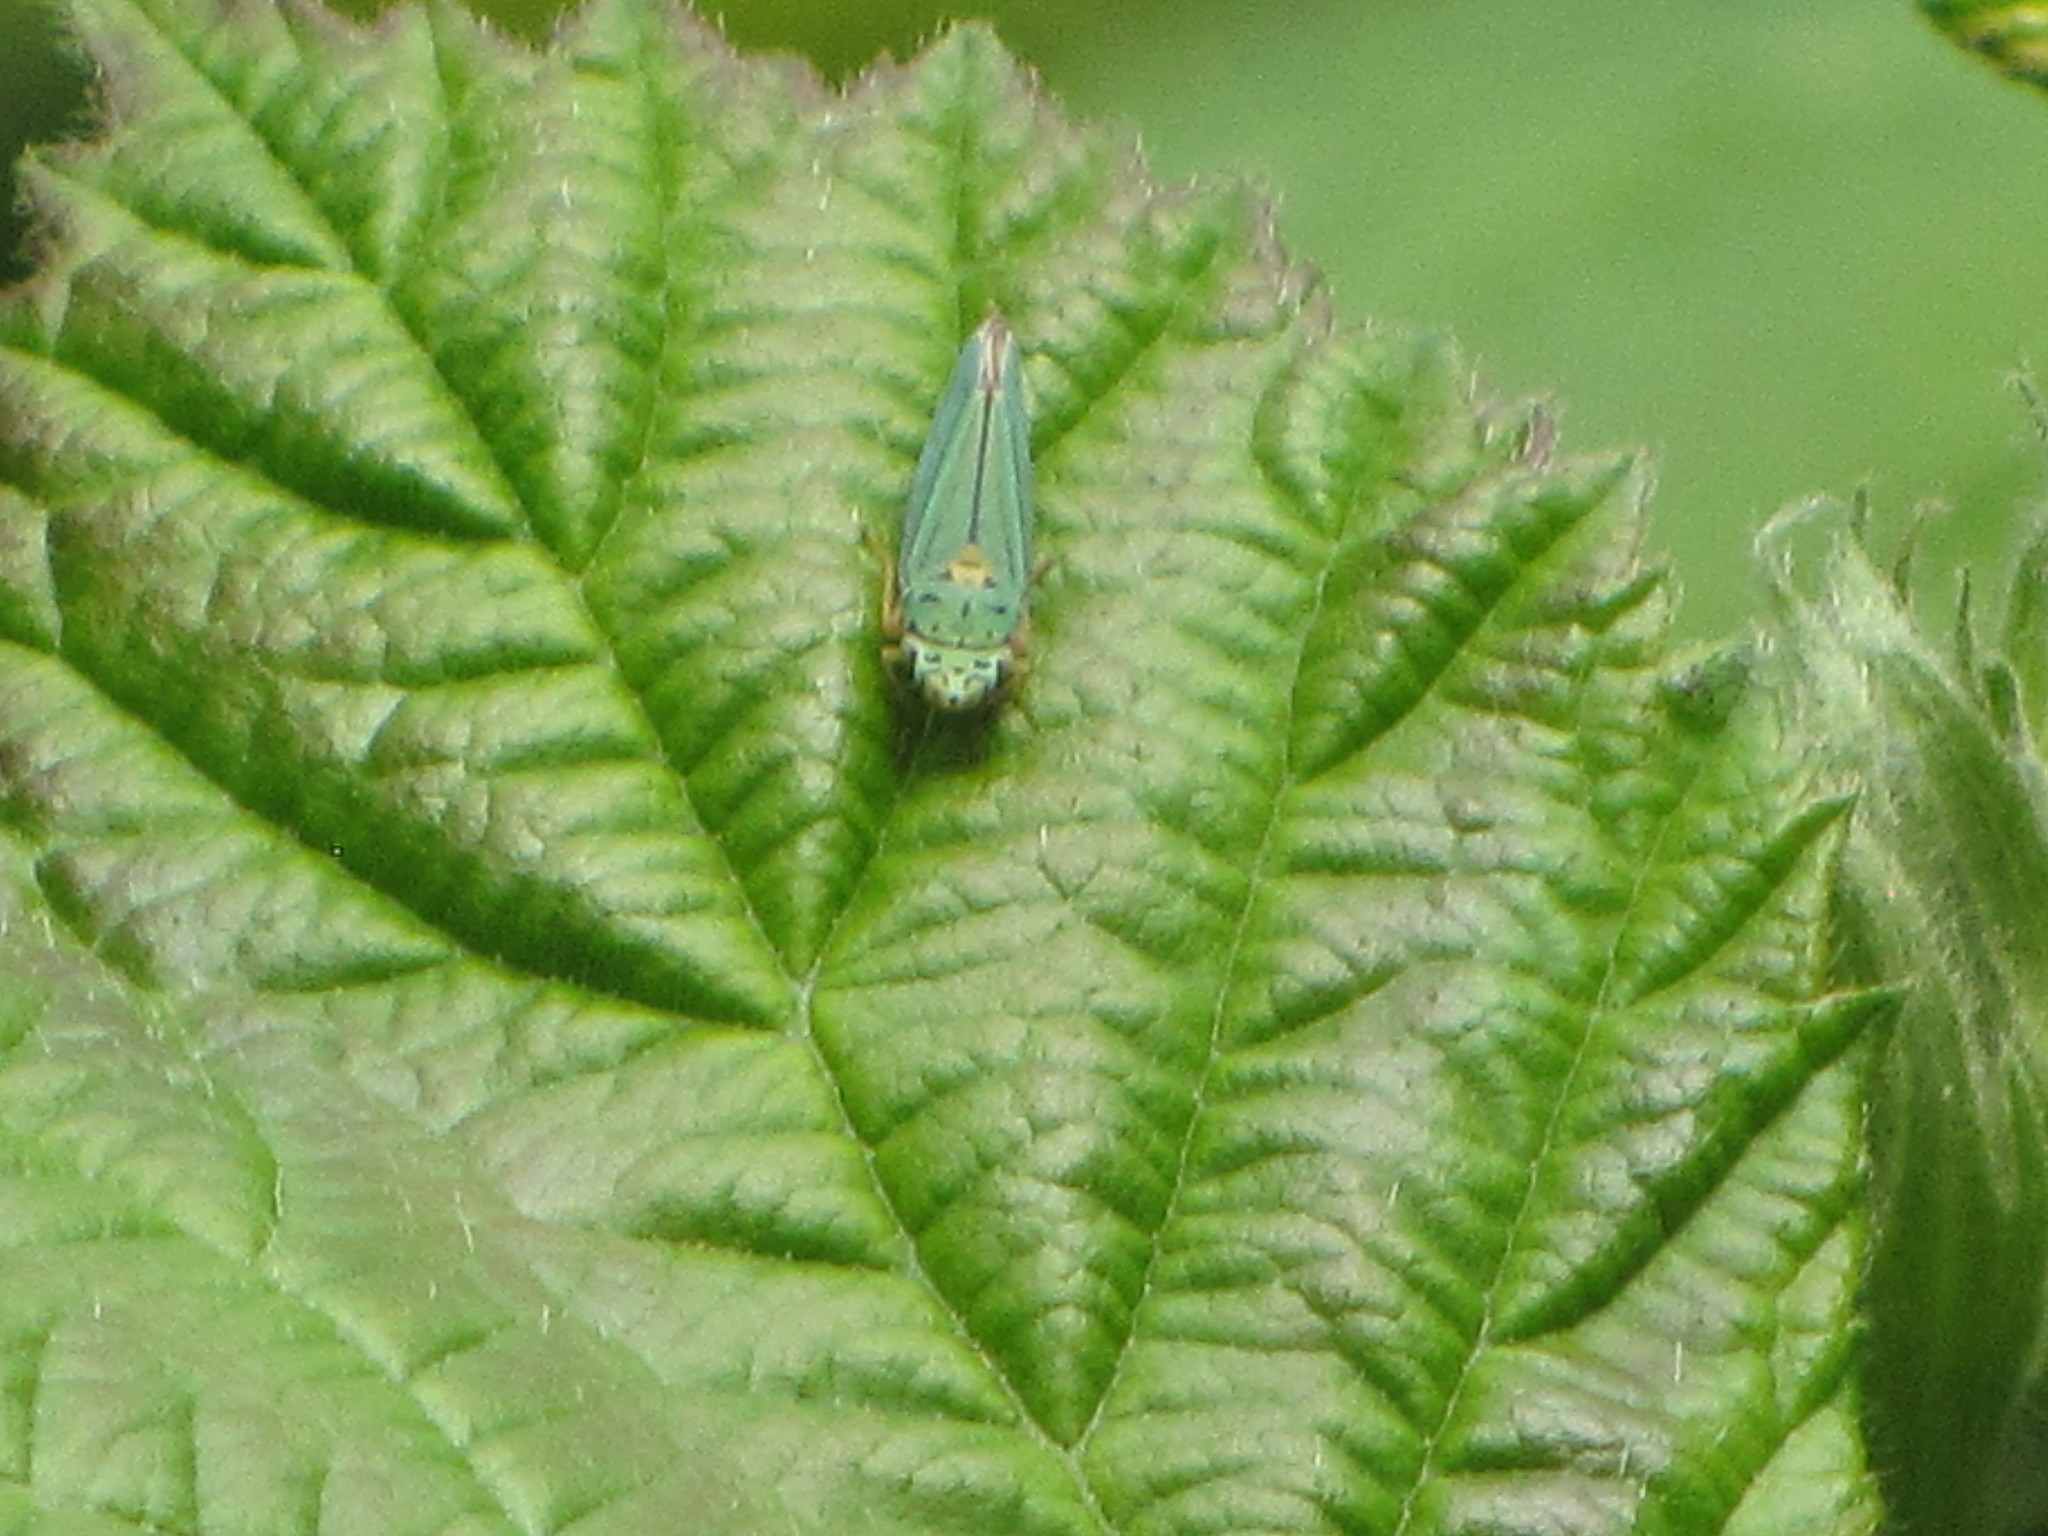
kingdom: Animalia
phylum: Arthropoda
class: Insecta
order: Hemiptera
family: Cicadellidae
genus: Graphocephala
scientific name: Graphocephala atropunctata
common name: Blue-green sharpshooter
